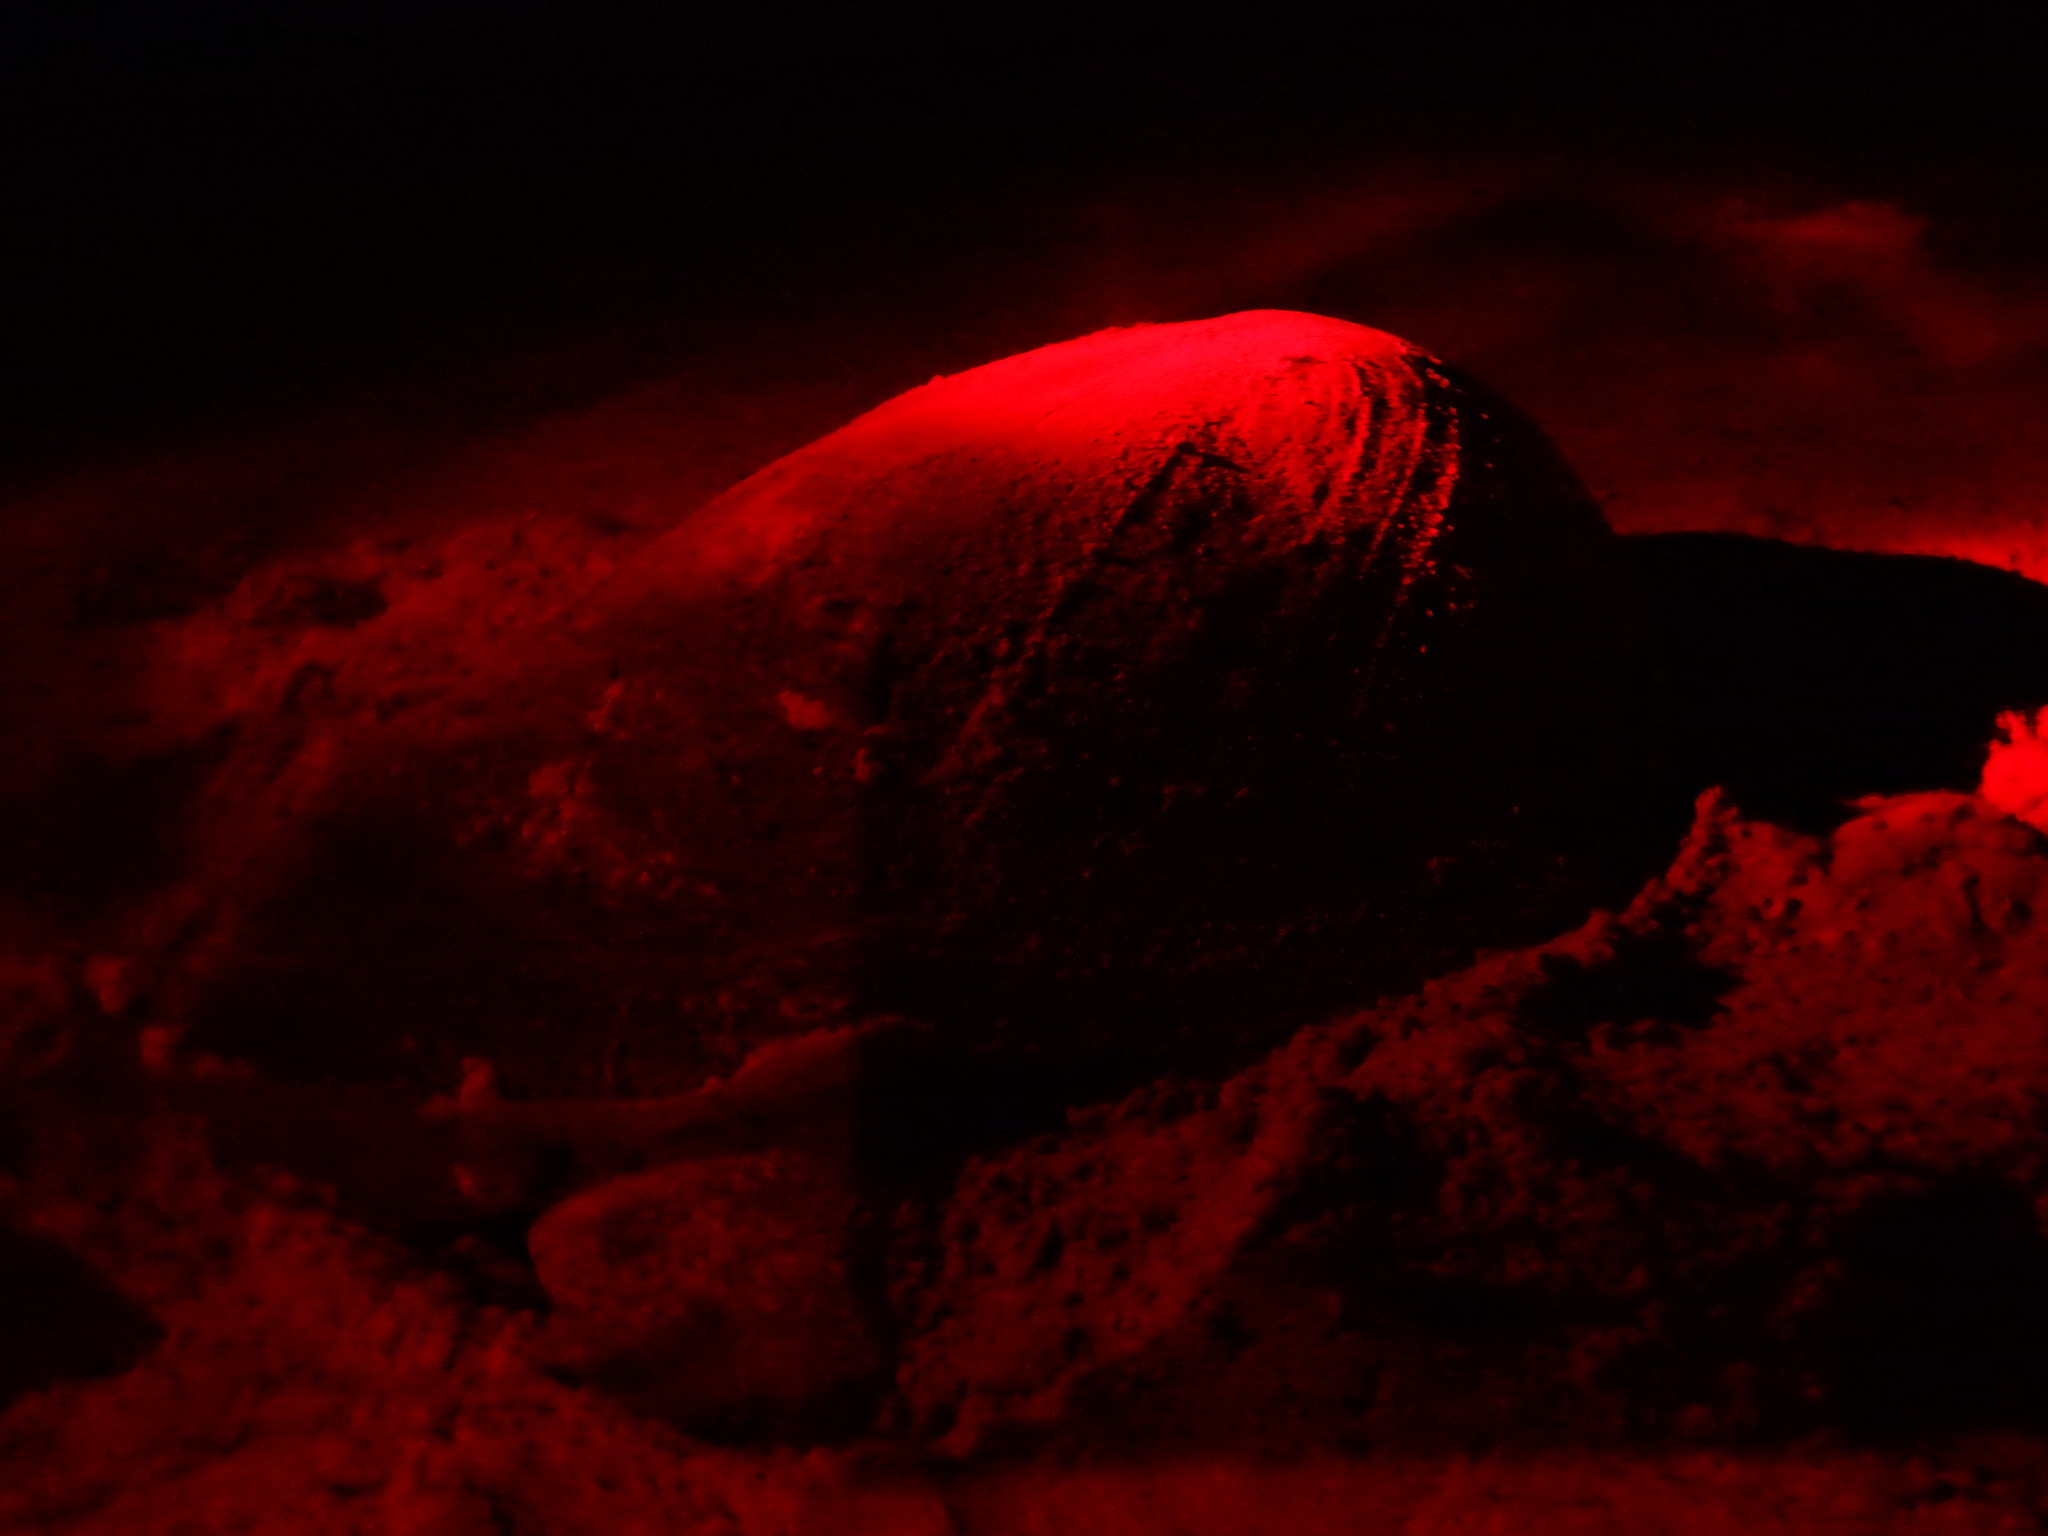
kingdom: Animalia
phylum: Chordata
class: Testudines
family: Cheloniidae
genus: Caretta
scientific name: Caretta caretta
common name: Loggerhead sea turtle
